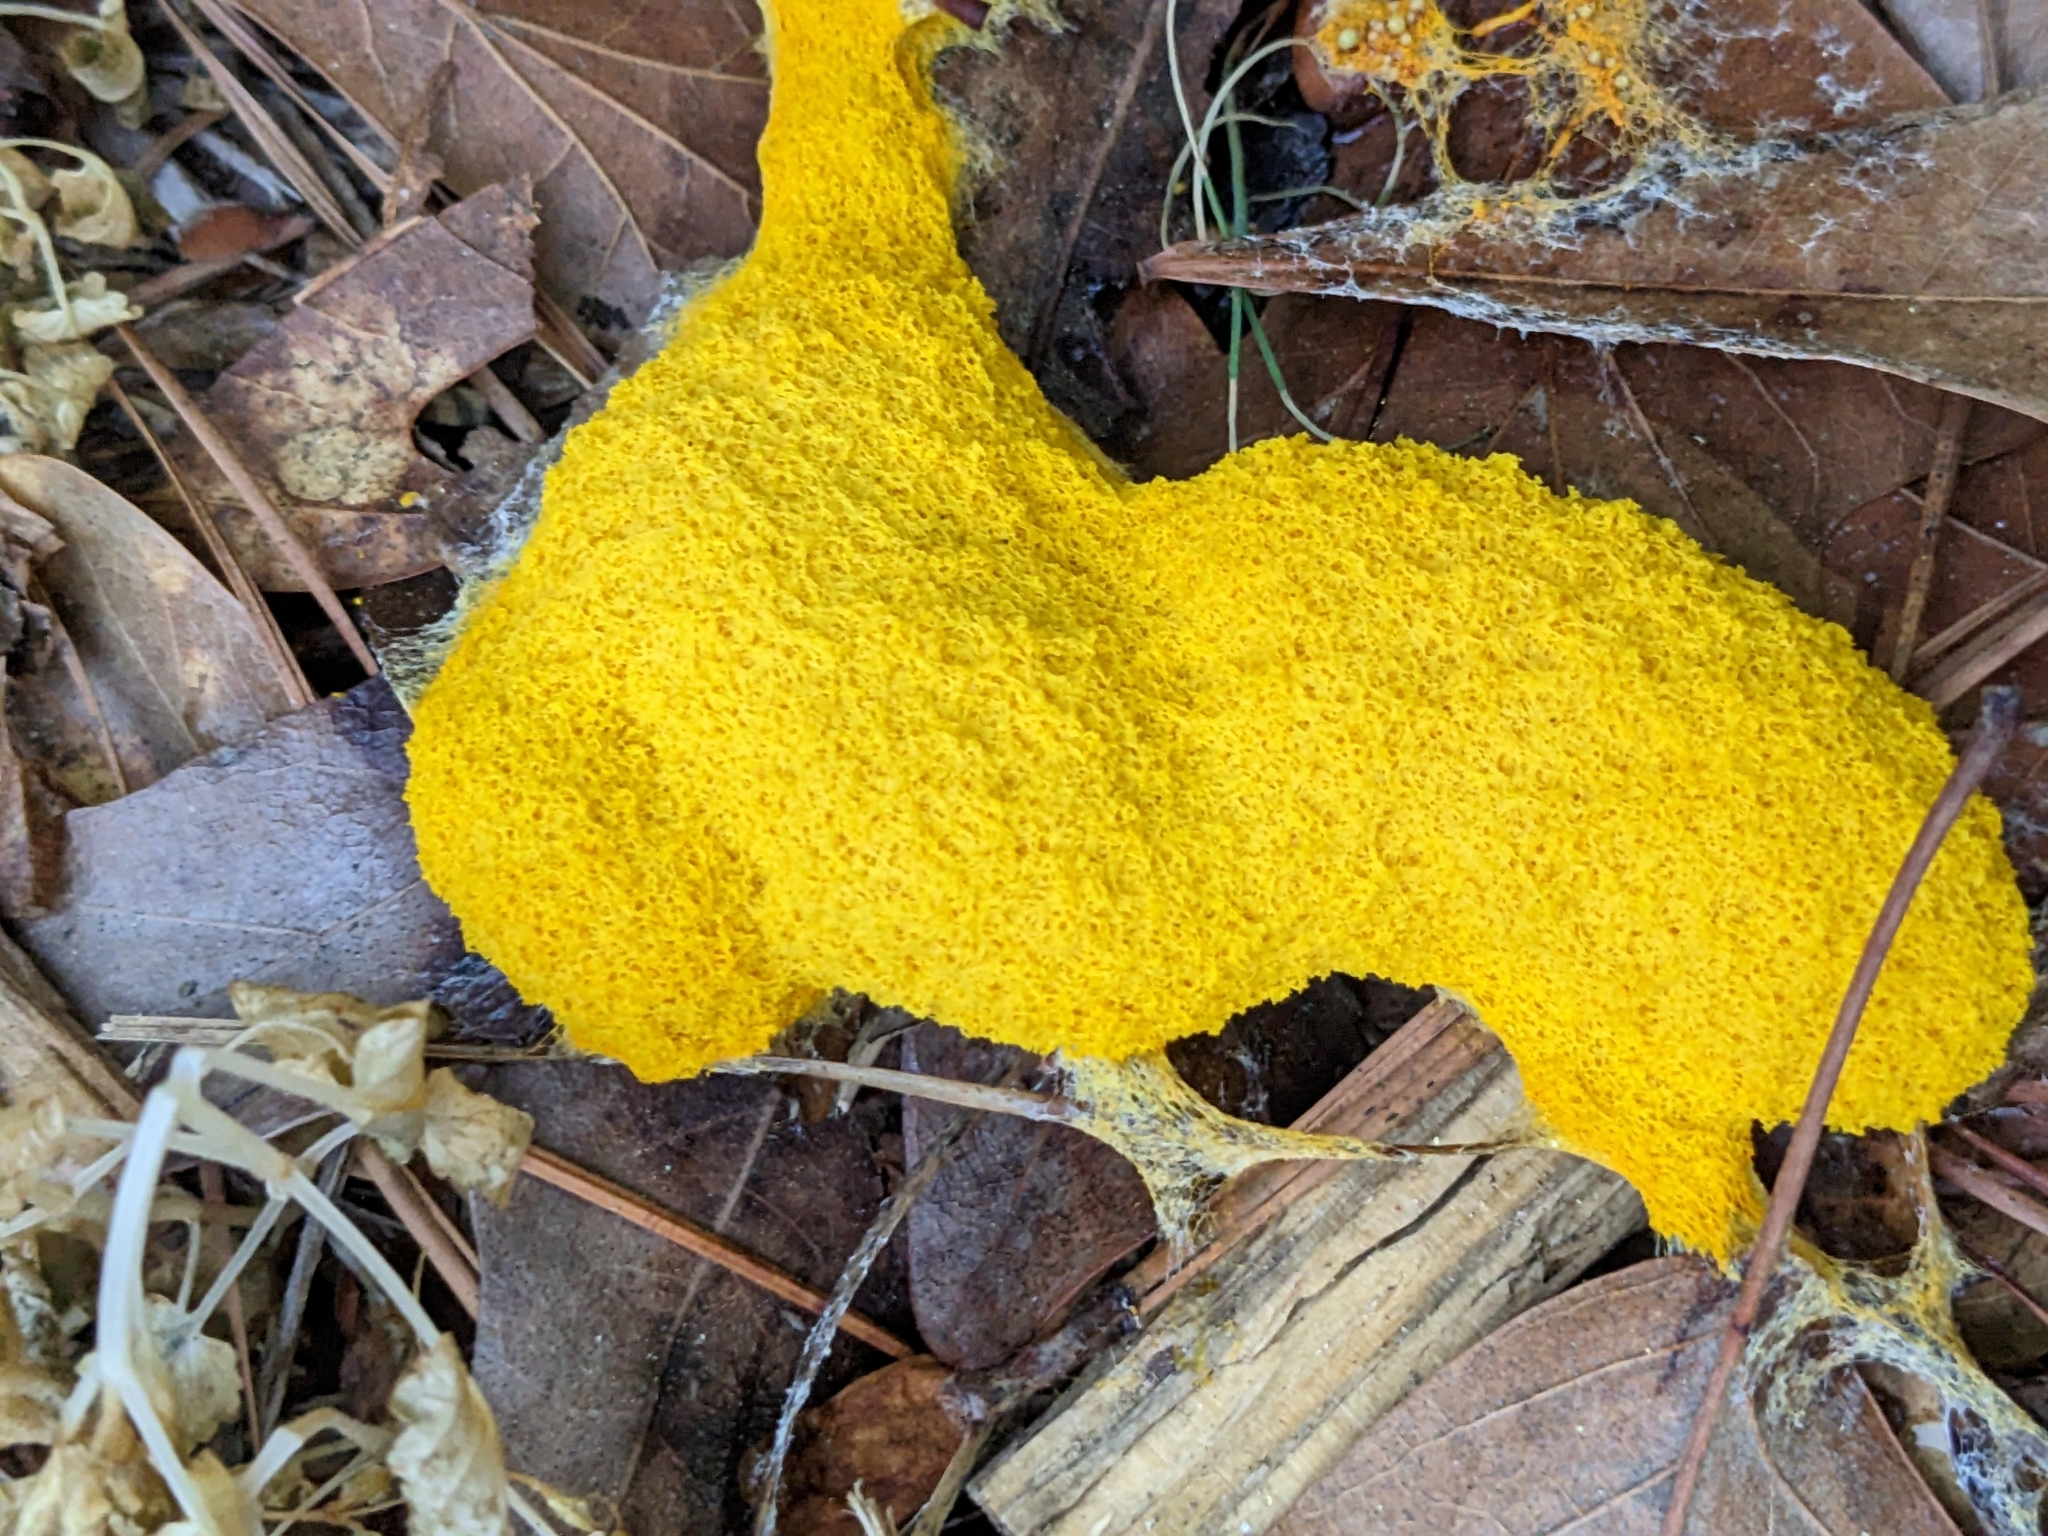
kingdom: Protozoa
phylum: Mycetozoa
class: Myxomycetes
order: Physarales
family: Physaraceae
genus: Fuligo
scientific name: Fuligo septica
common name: Dog vomit slime mold
